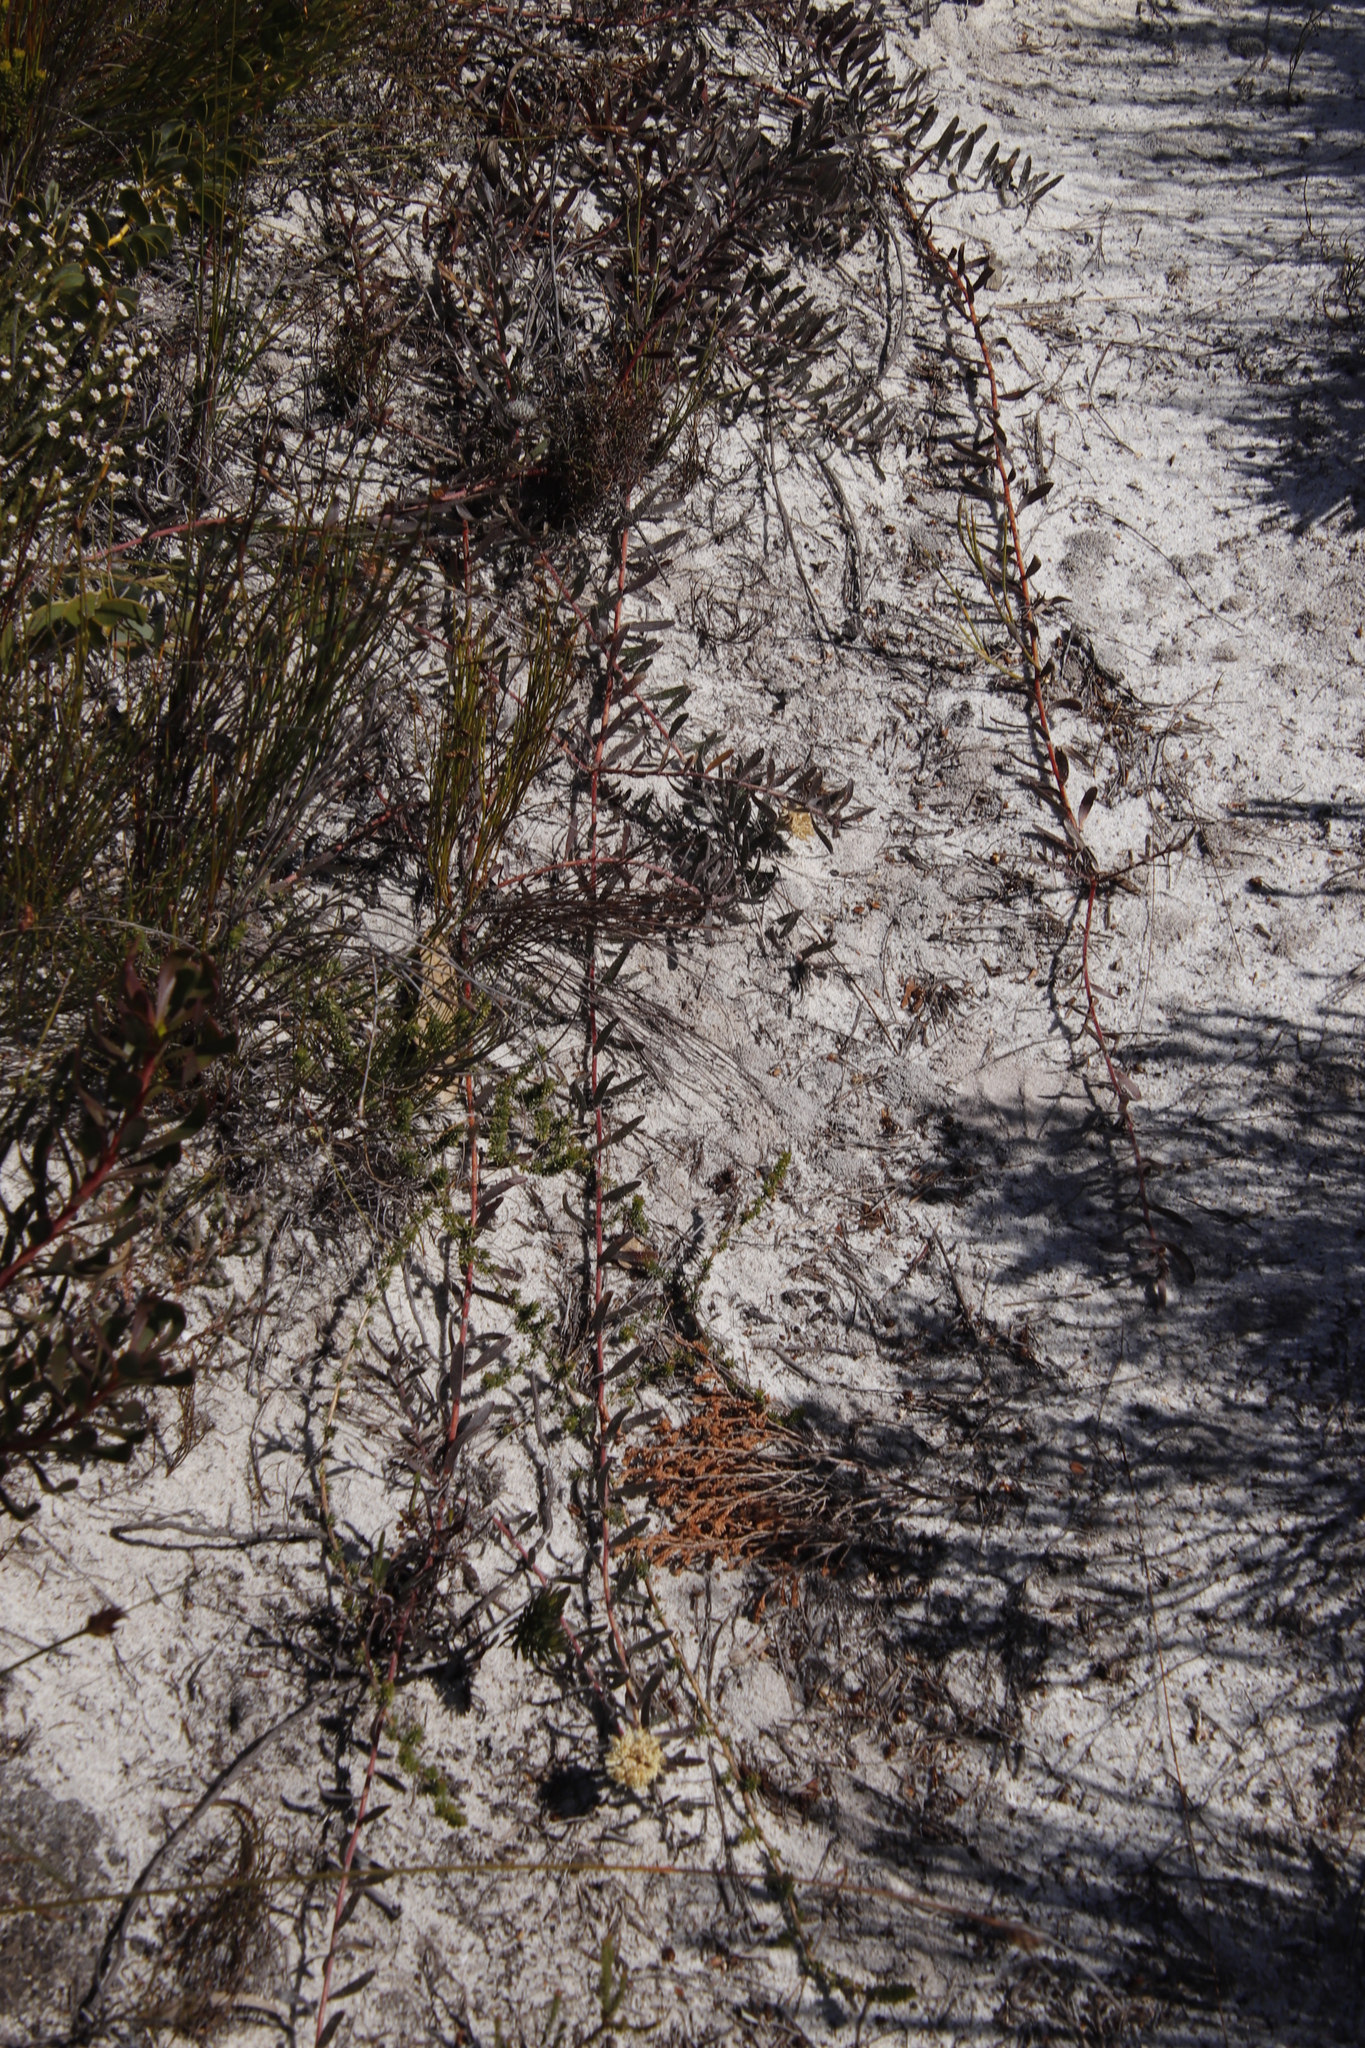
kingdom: Plantae
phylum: Tracheophyta
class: Magnoliopsida
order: Proteales
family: Proteaceae
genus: Leucospermum
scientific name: Leucospermum pedunculatum
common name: White-trailing pincushion
